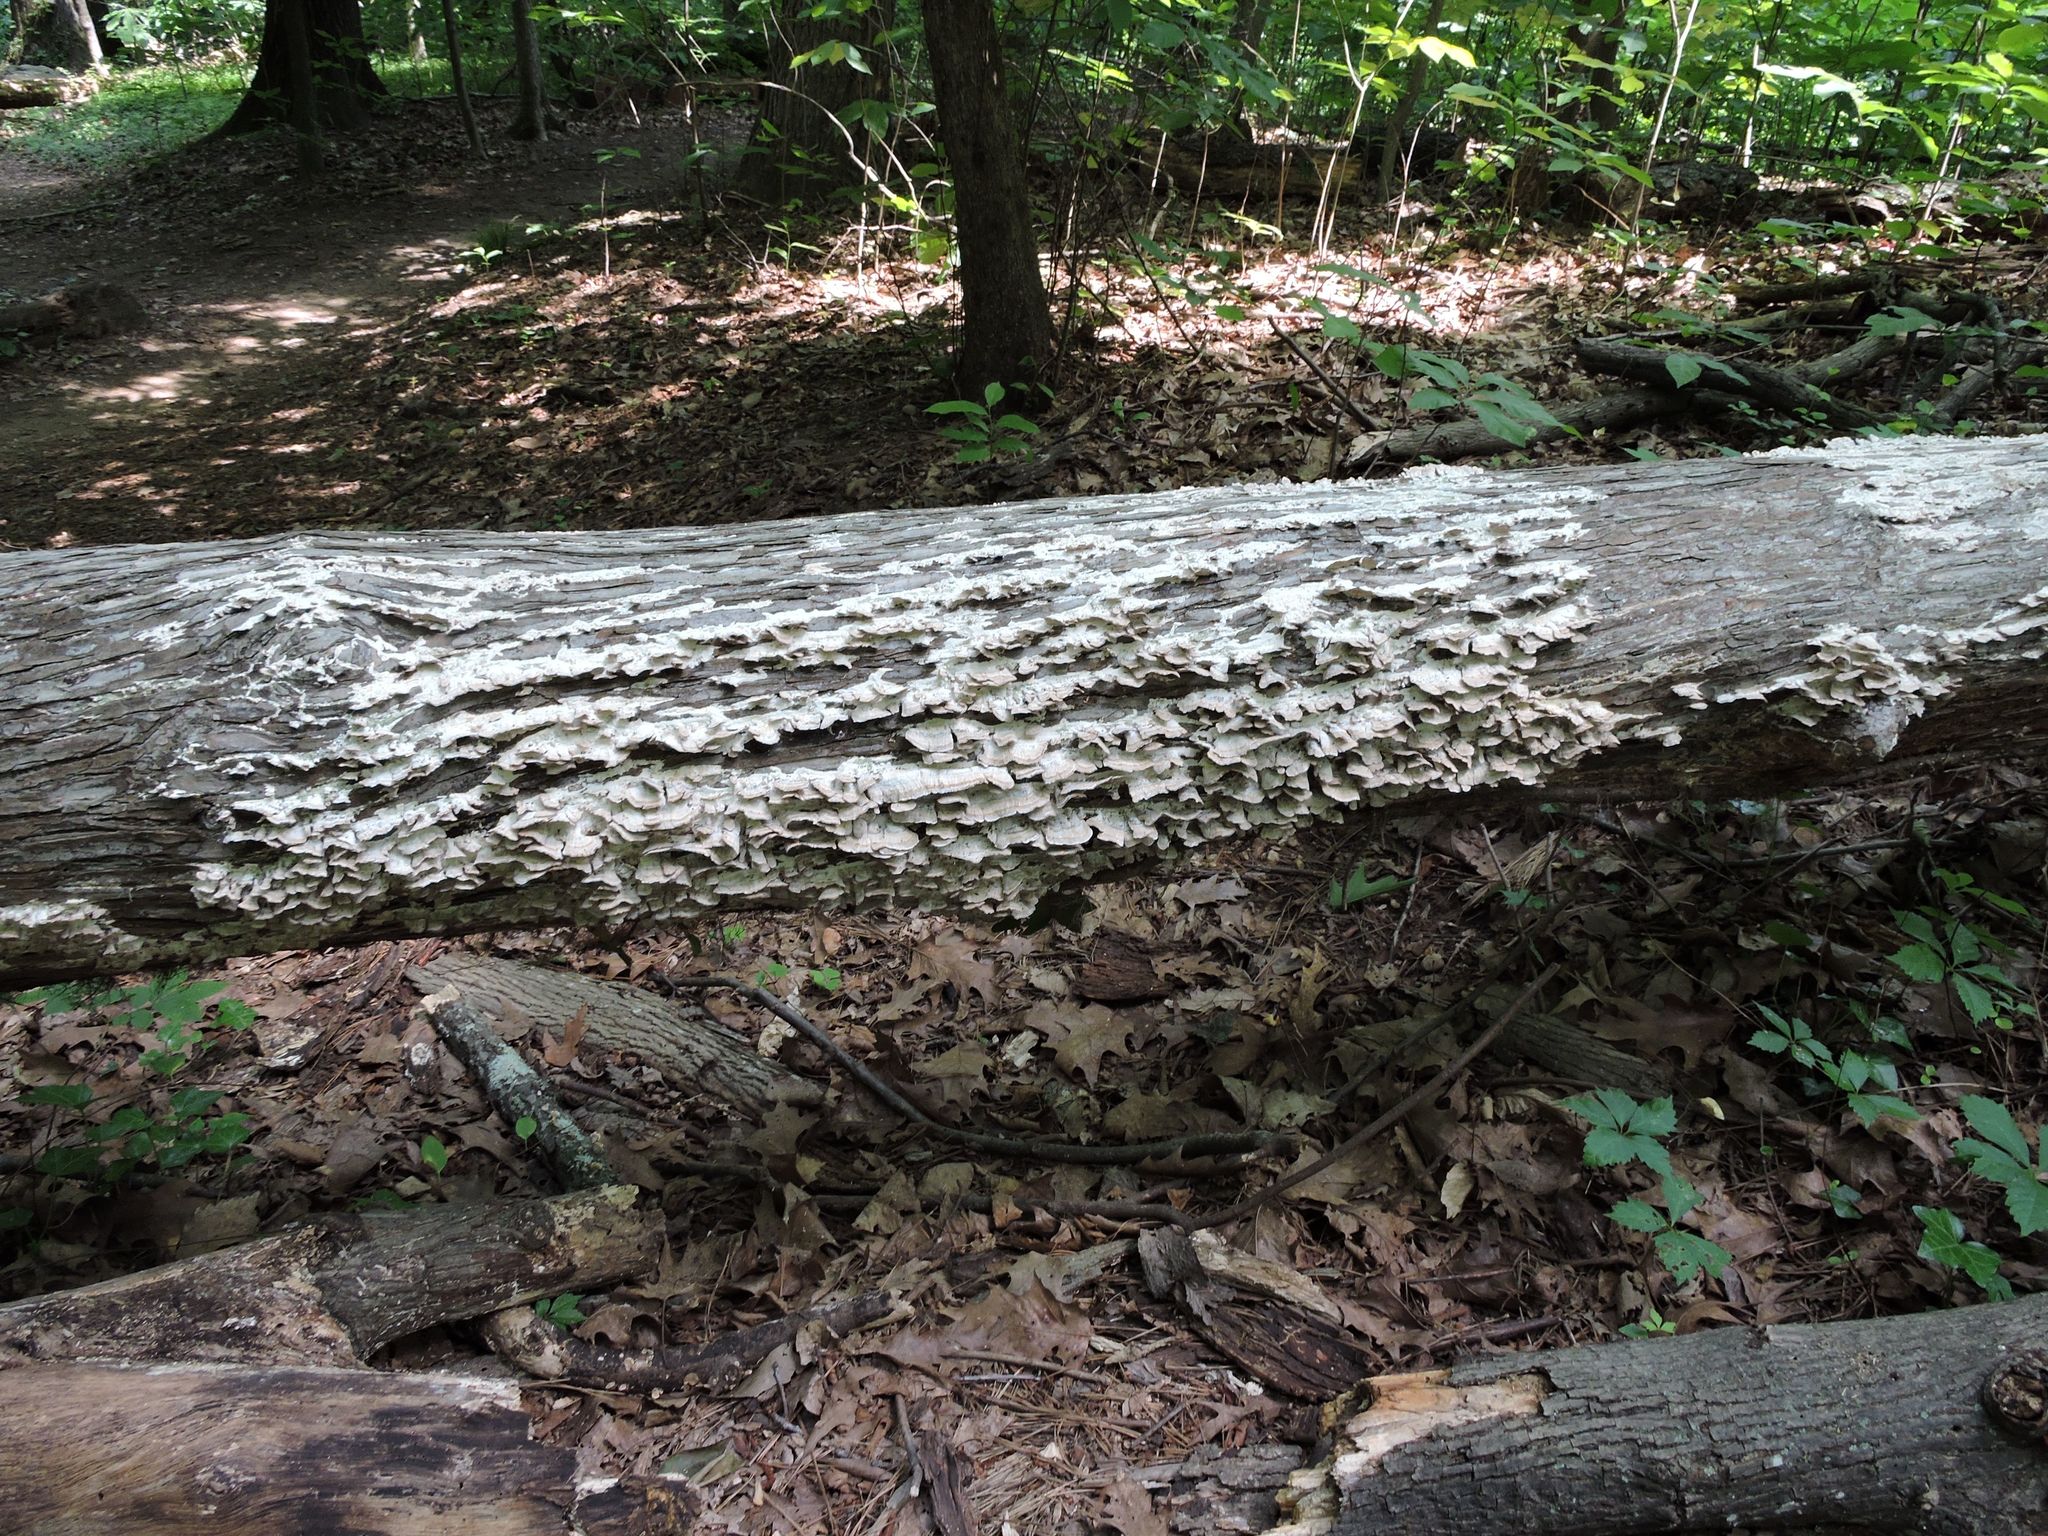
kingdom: Fungi
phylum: Basidiomycota
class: Agaricomycetes
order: Hymenochaetales
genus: Trichaptum
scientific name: Trichaptum biforme
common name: Violet-toothed polypore
